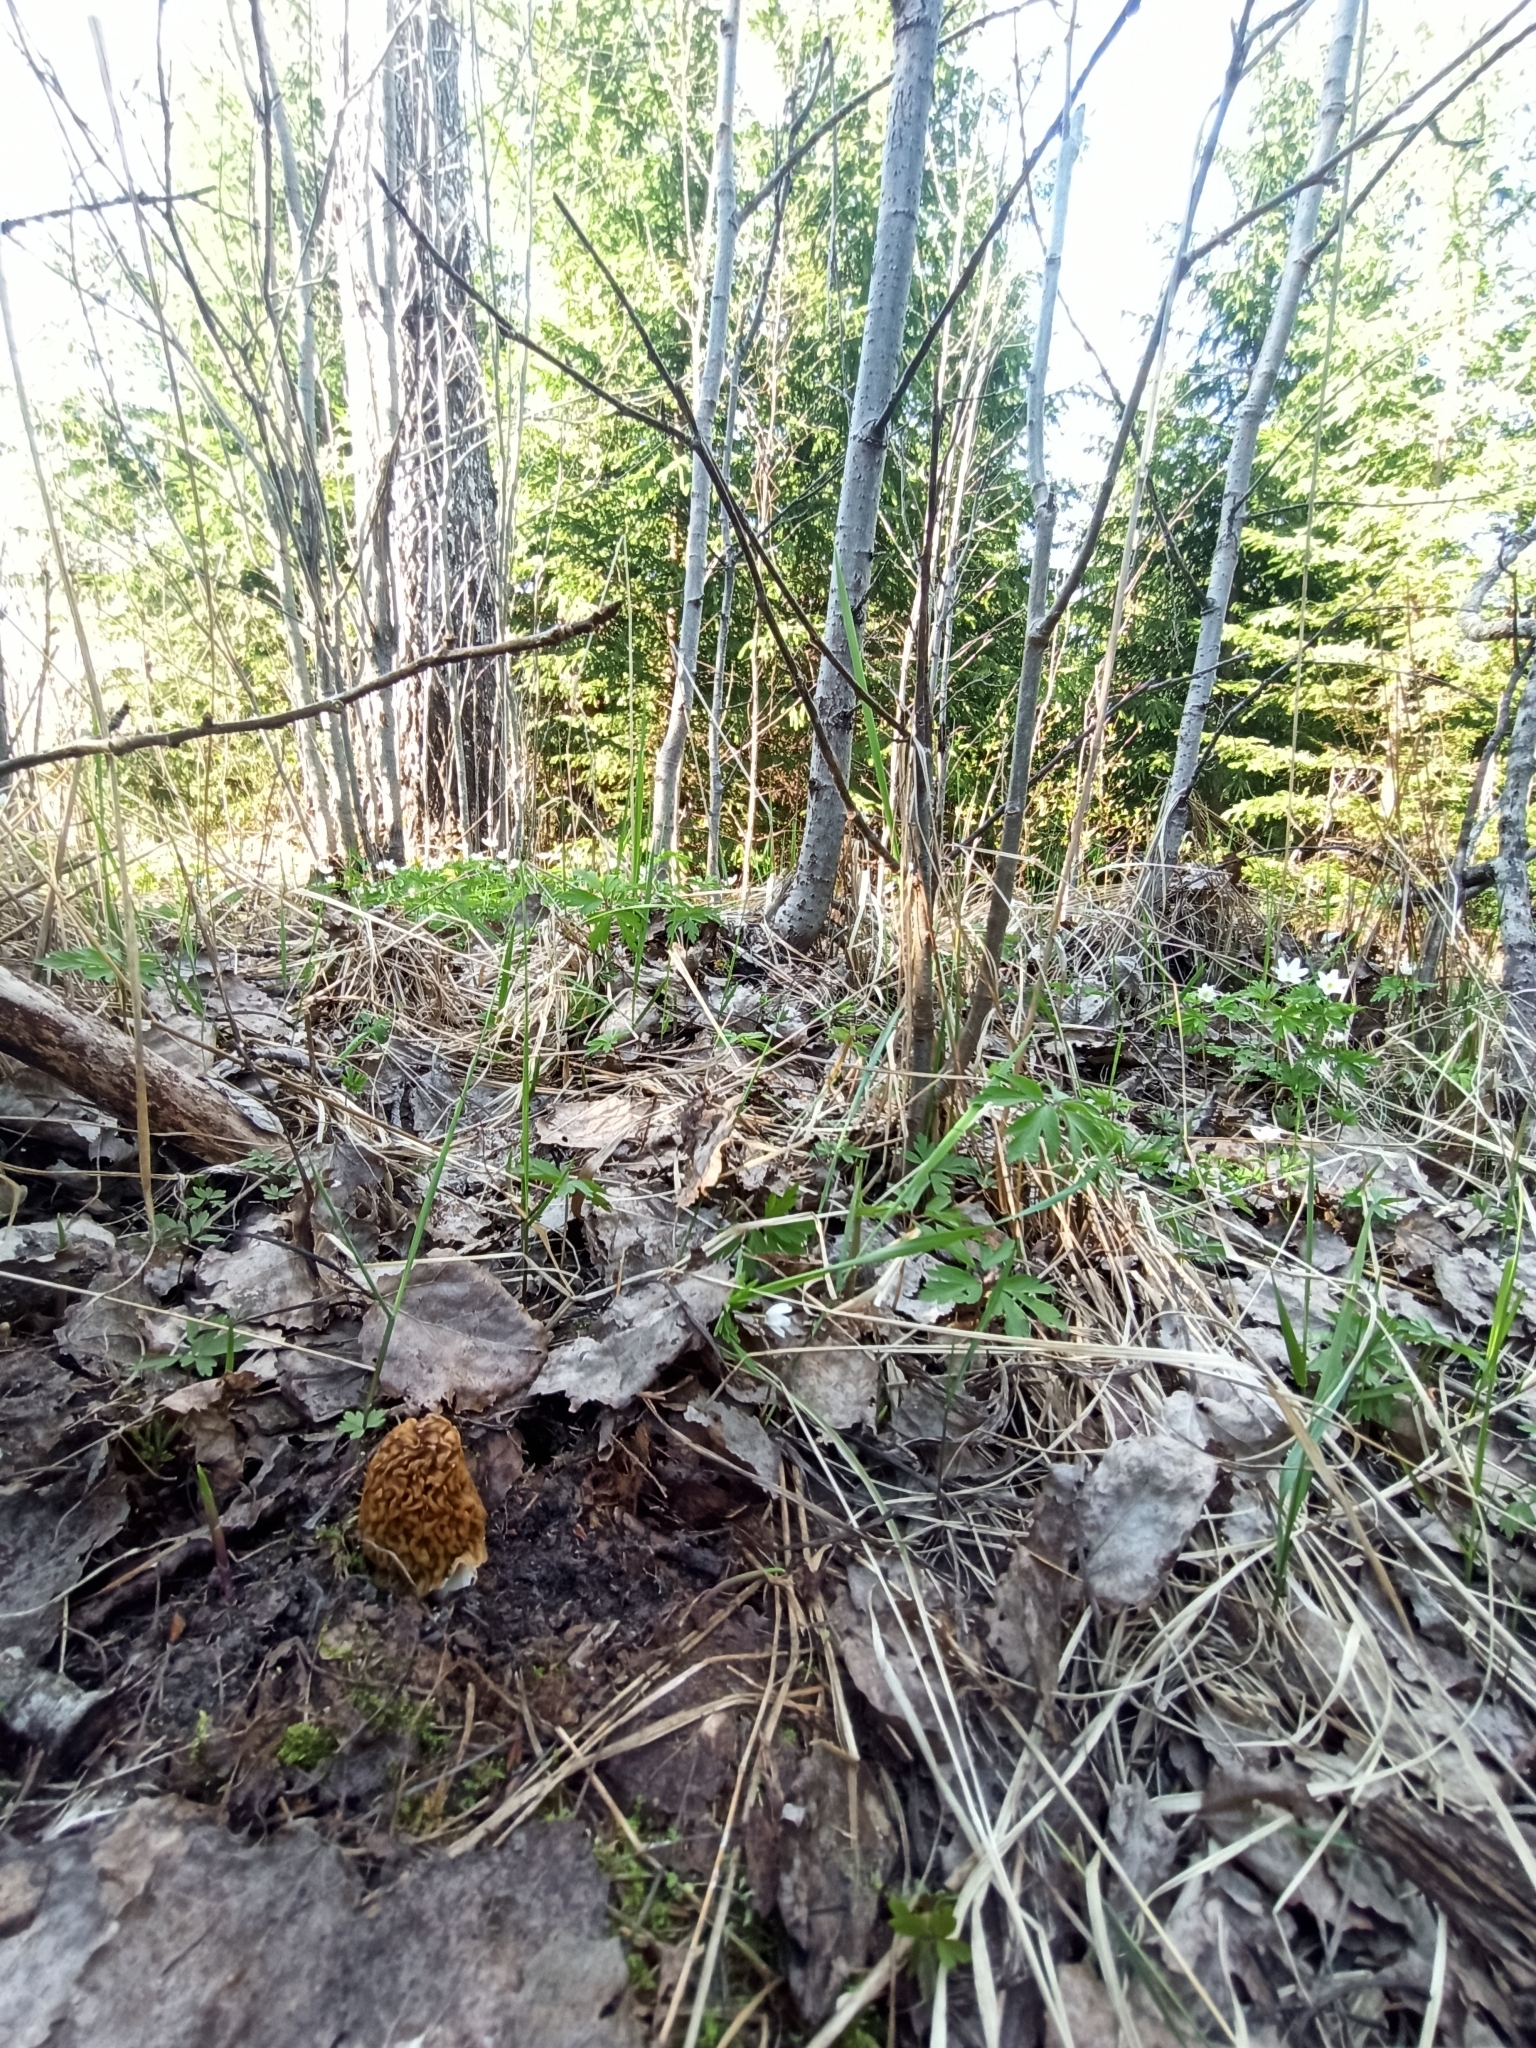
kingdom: Fungi
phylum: Ascomycota
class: Pezizomycetes
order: Pezizales
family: Morchellaceae
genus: Verpa
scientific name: Verpa bohemica
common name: Wrinkled thimble morel
